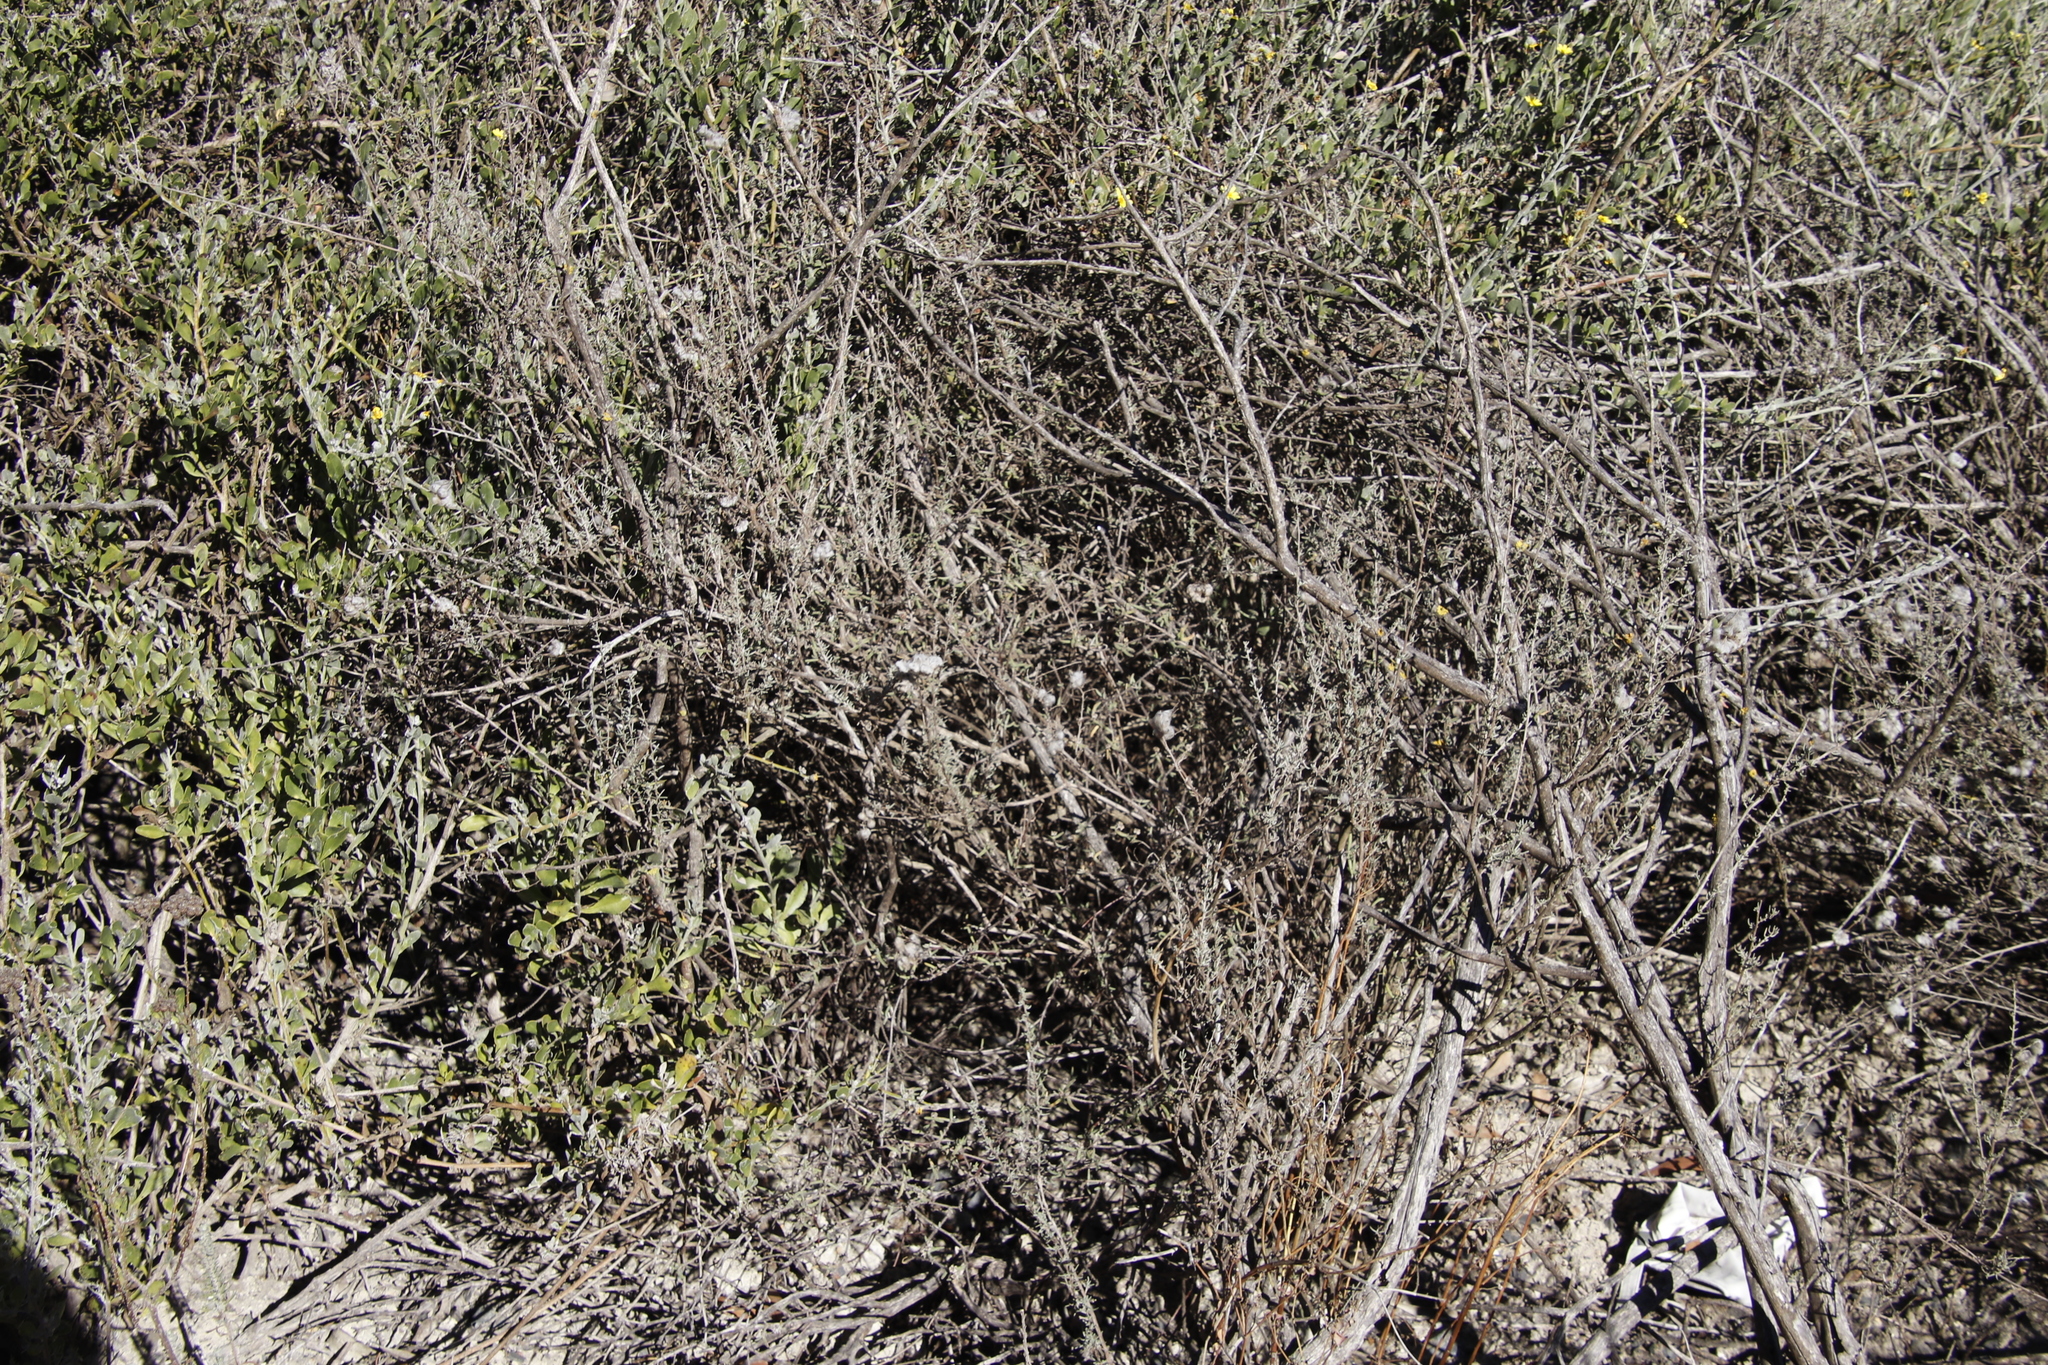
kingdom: Plantae
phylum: Tracheophyta
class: Magnoliopsida
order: Asterales
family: Asteraceae
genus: Eriocephalus
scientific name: Eriocephalus africanus
